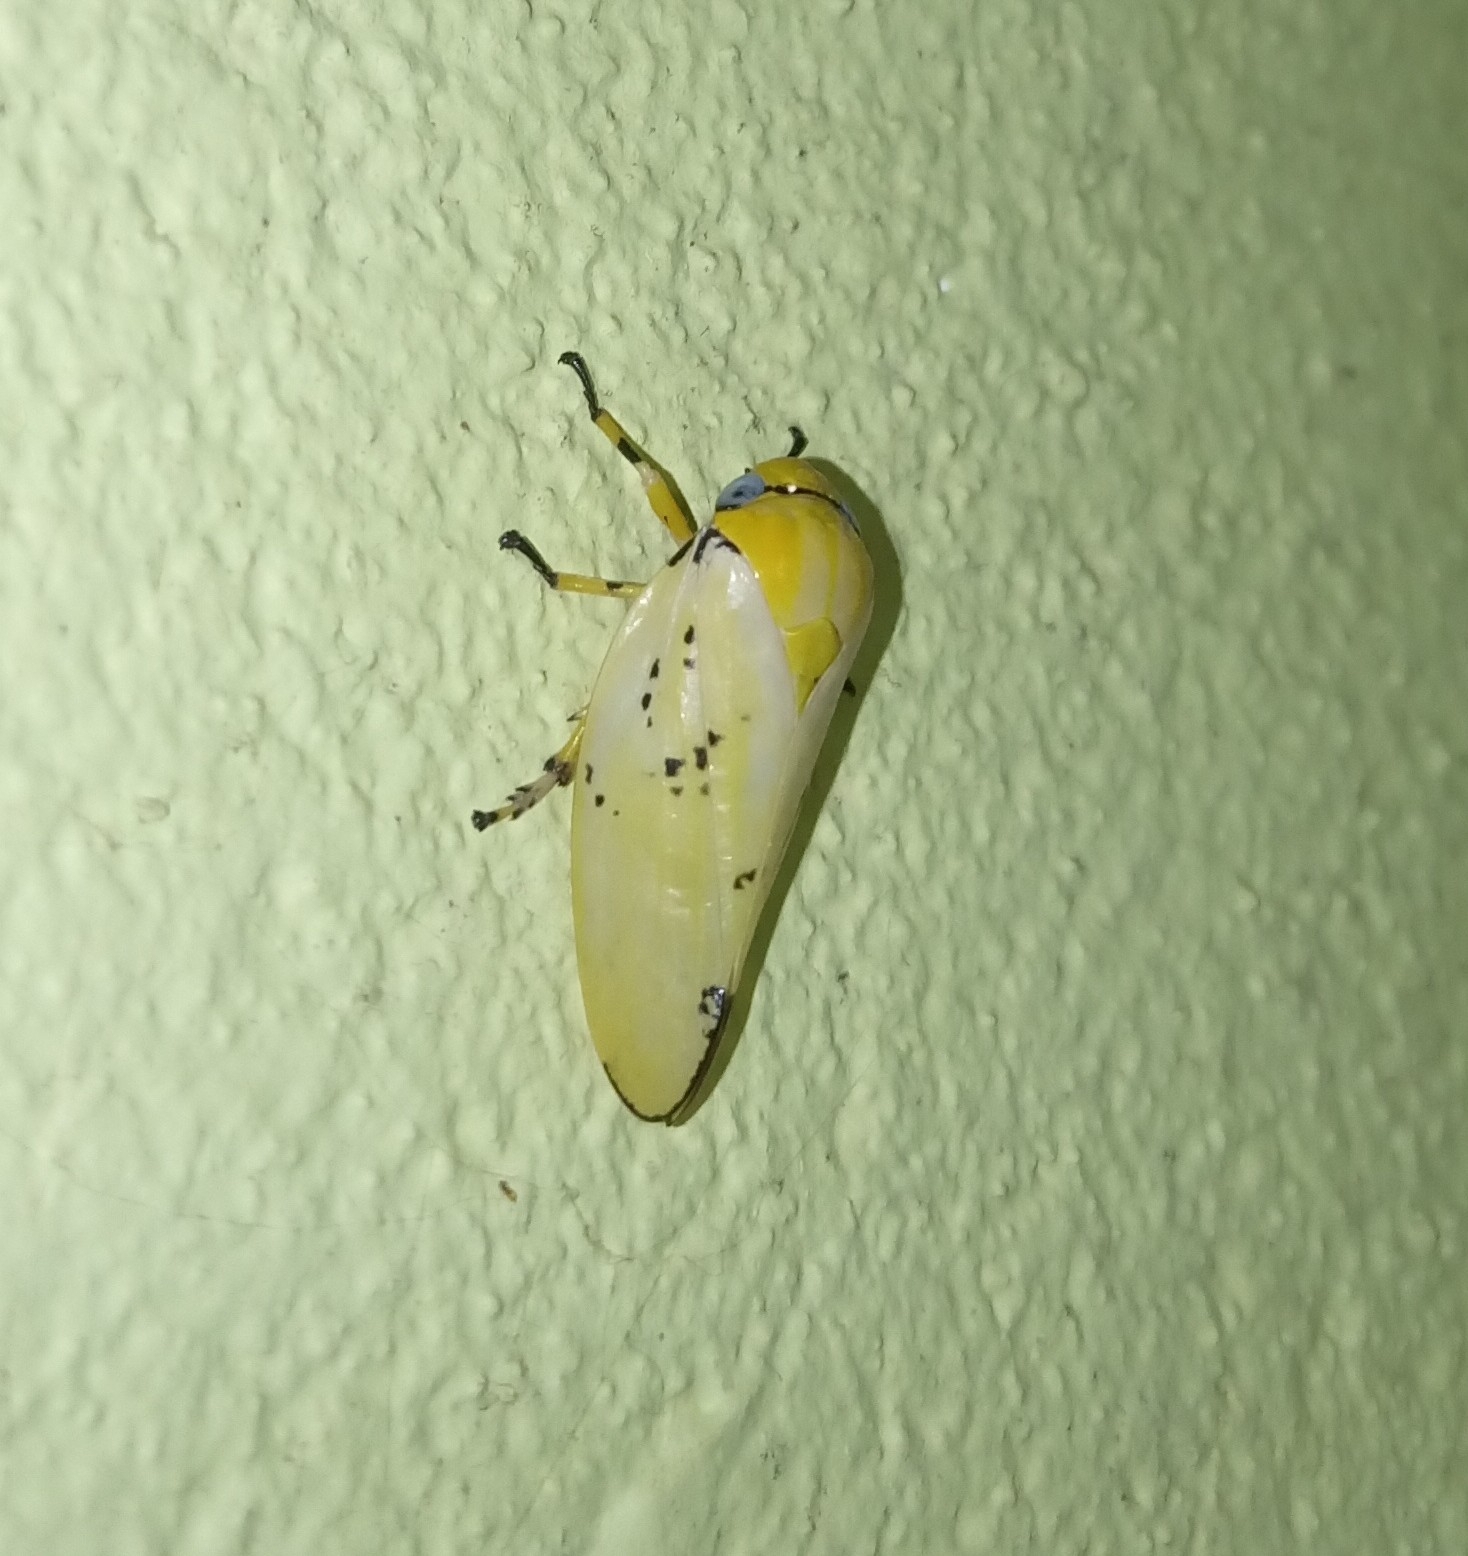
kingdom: Animalia
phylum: Arthropoda
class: Insecta
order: Hemiptera
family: Aphrophoridae
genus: Ptyelus
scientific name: Ptyelus flavescens
